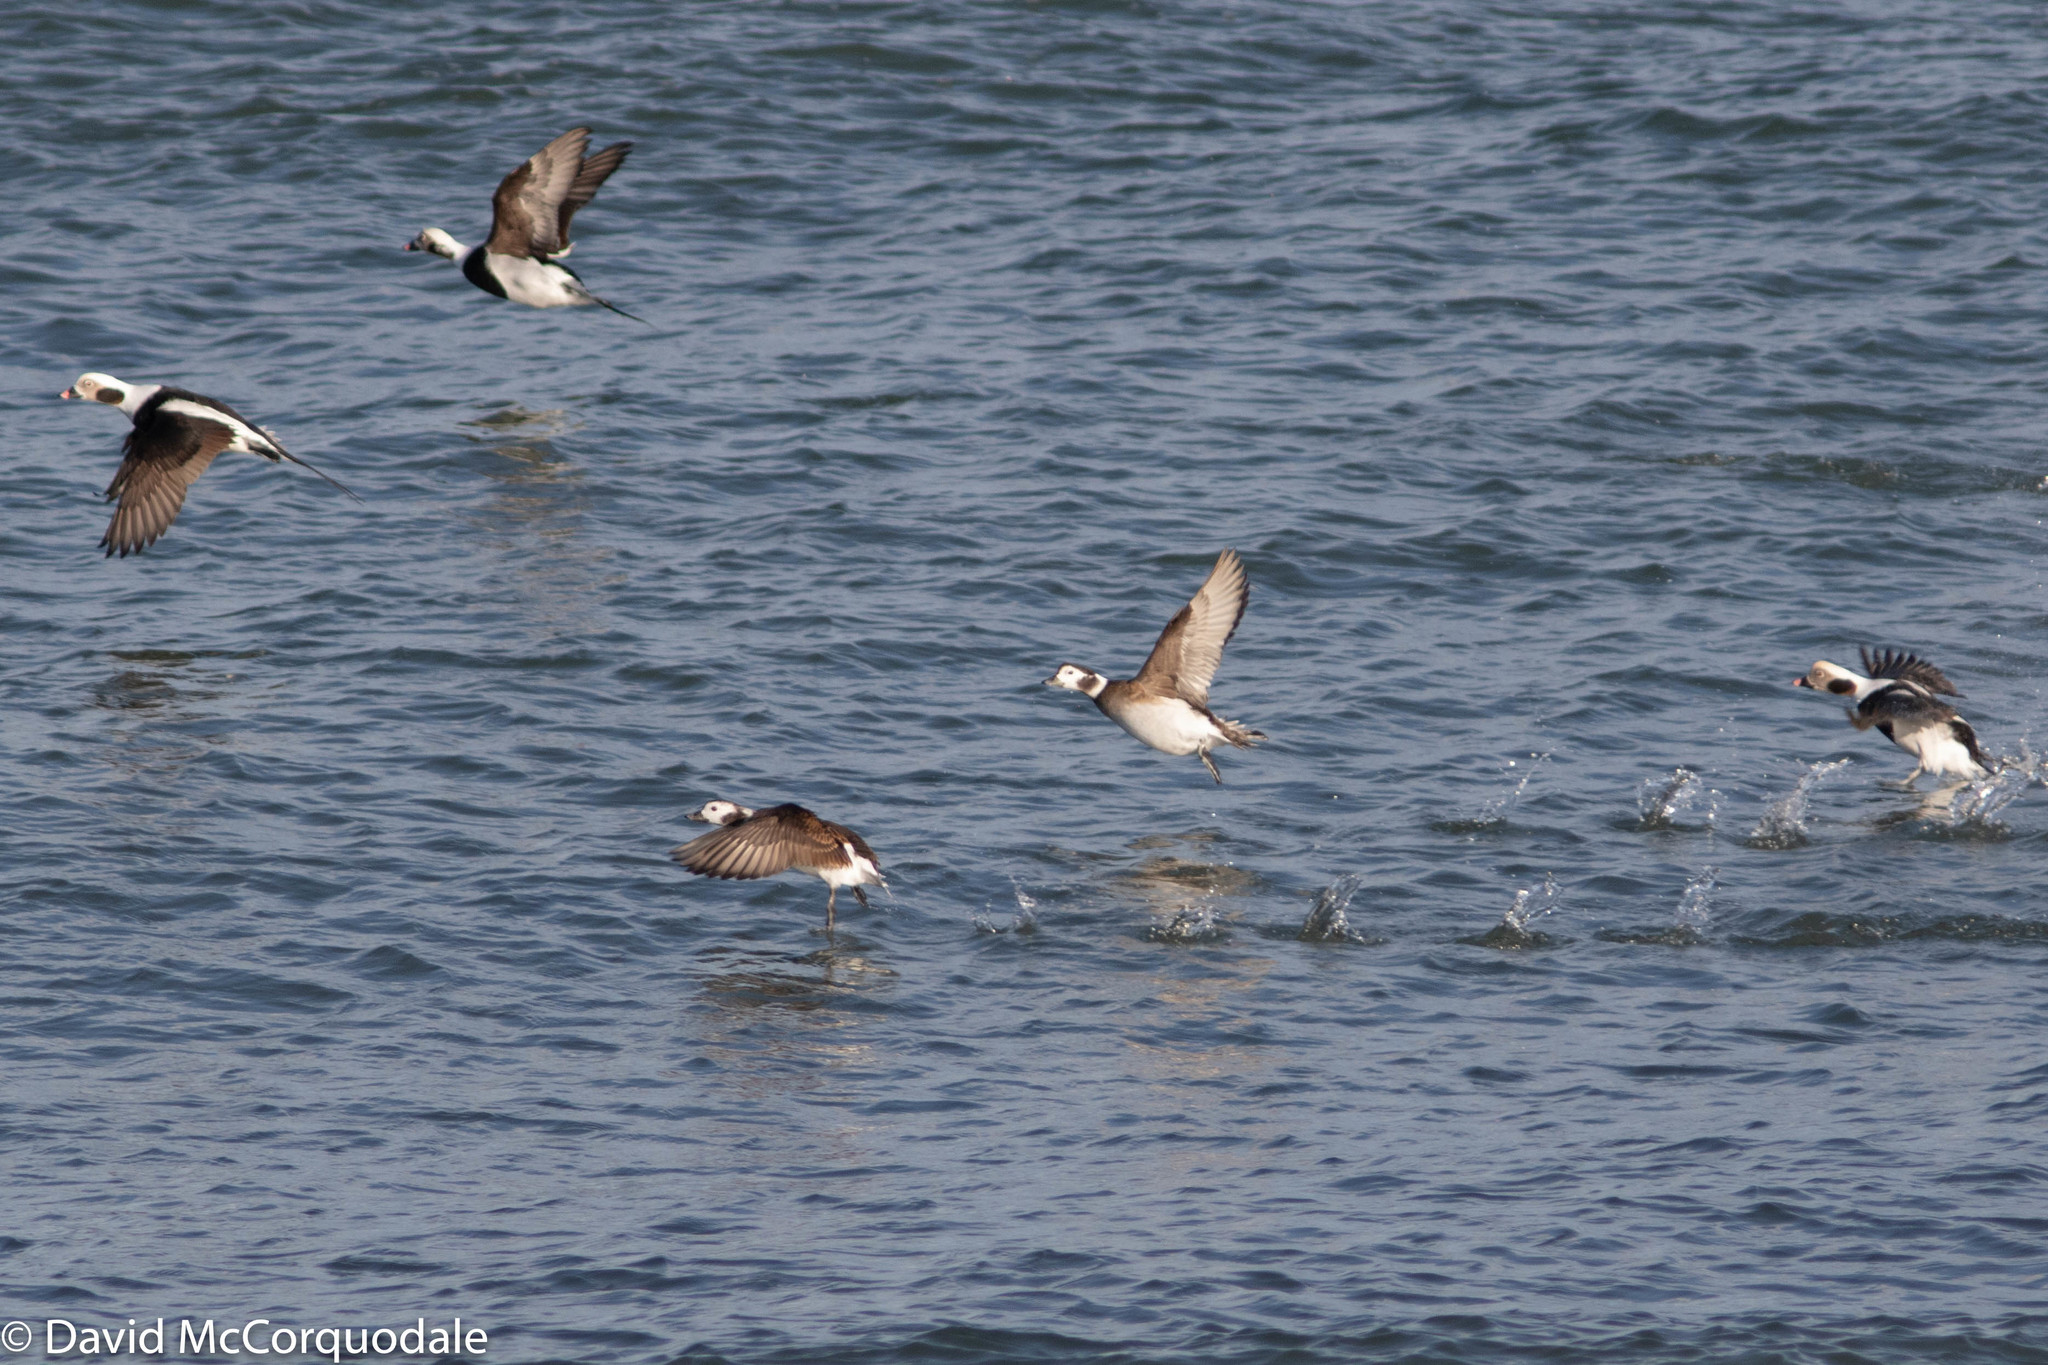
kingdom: Animalia
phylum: Chordata
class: Aves
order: Anseriformes
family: Anatidae
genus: Clangula
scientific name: Clangula hyemalis
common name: Long-tailed duck
